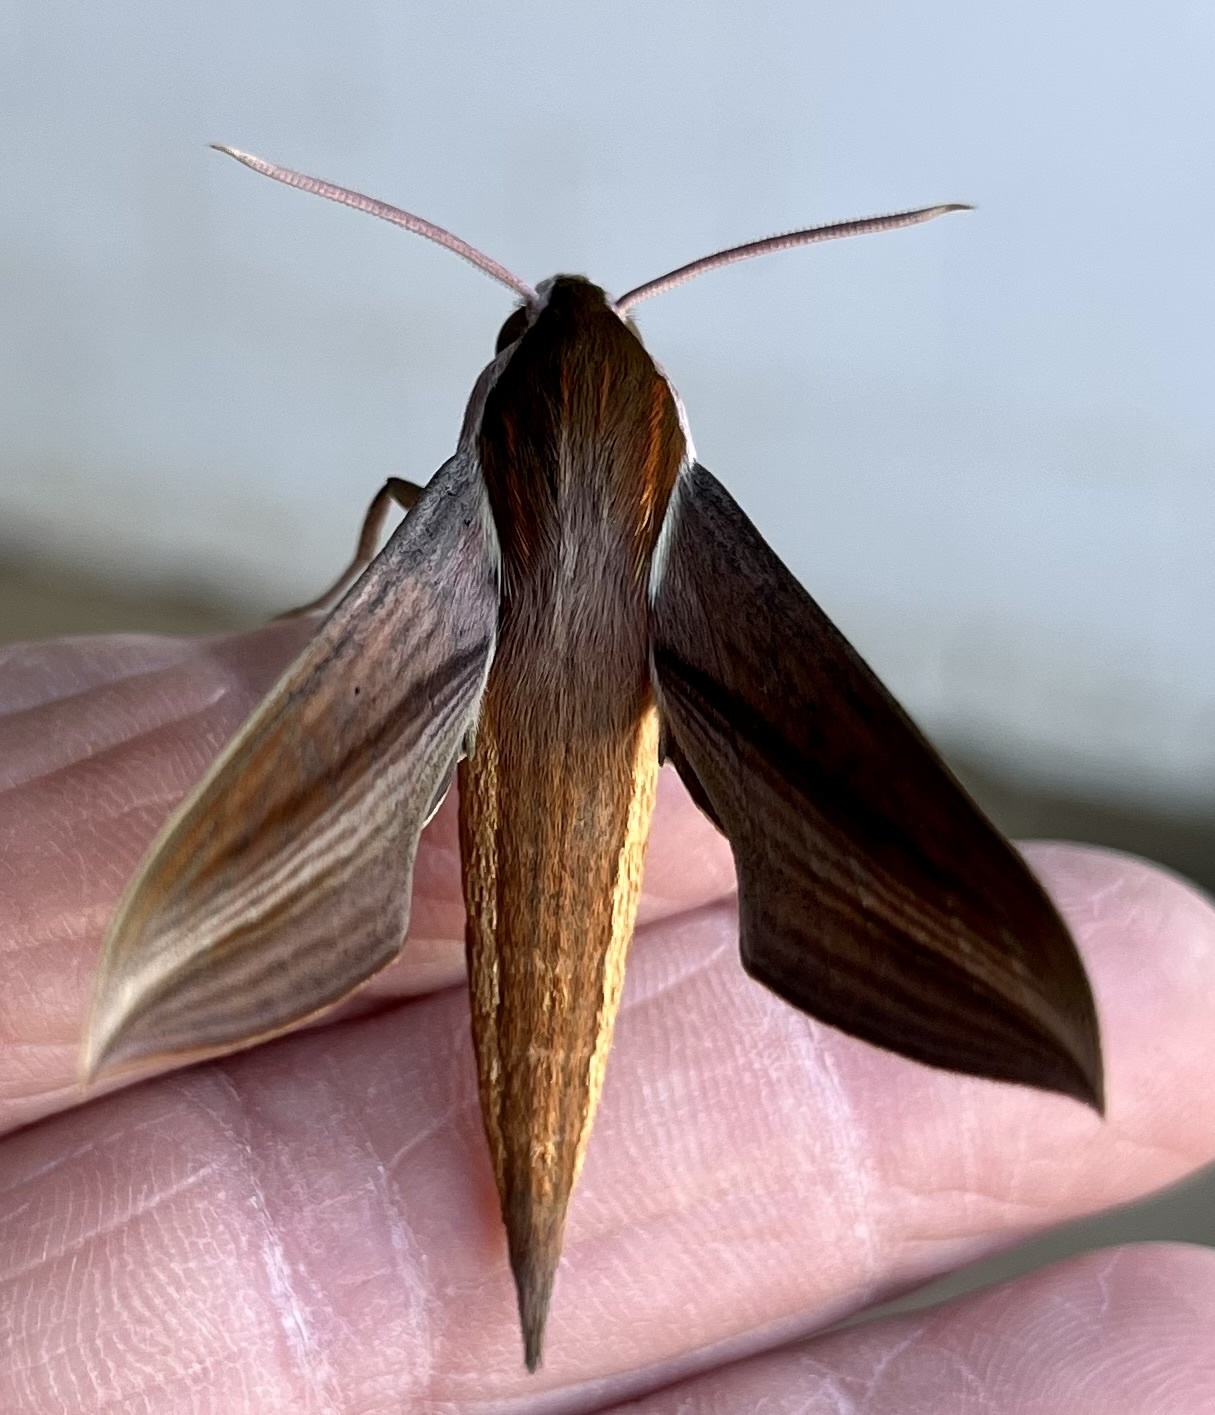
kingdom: Animalia
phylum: Arthropoda
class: Insecta
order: Lepidoptera
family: Sphingidae
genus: Xylophanes
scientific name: Xylophanes tersa
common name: Tersa sphinx
